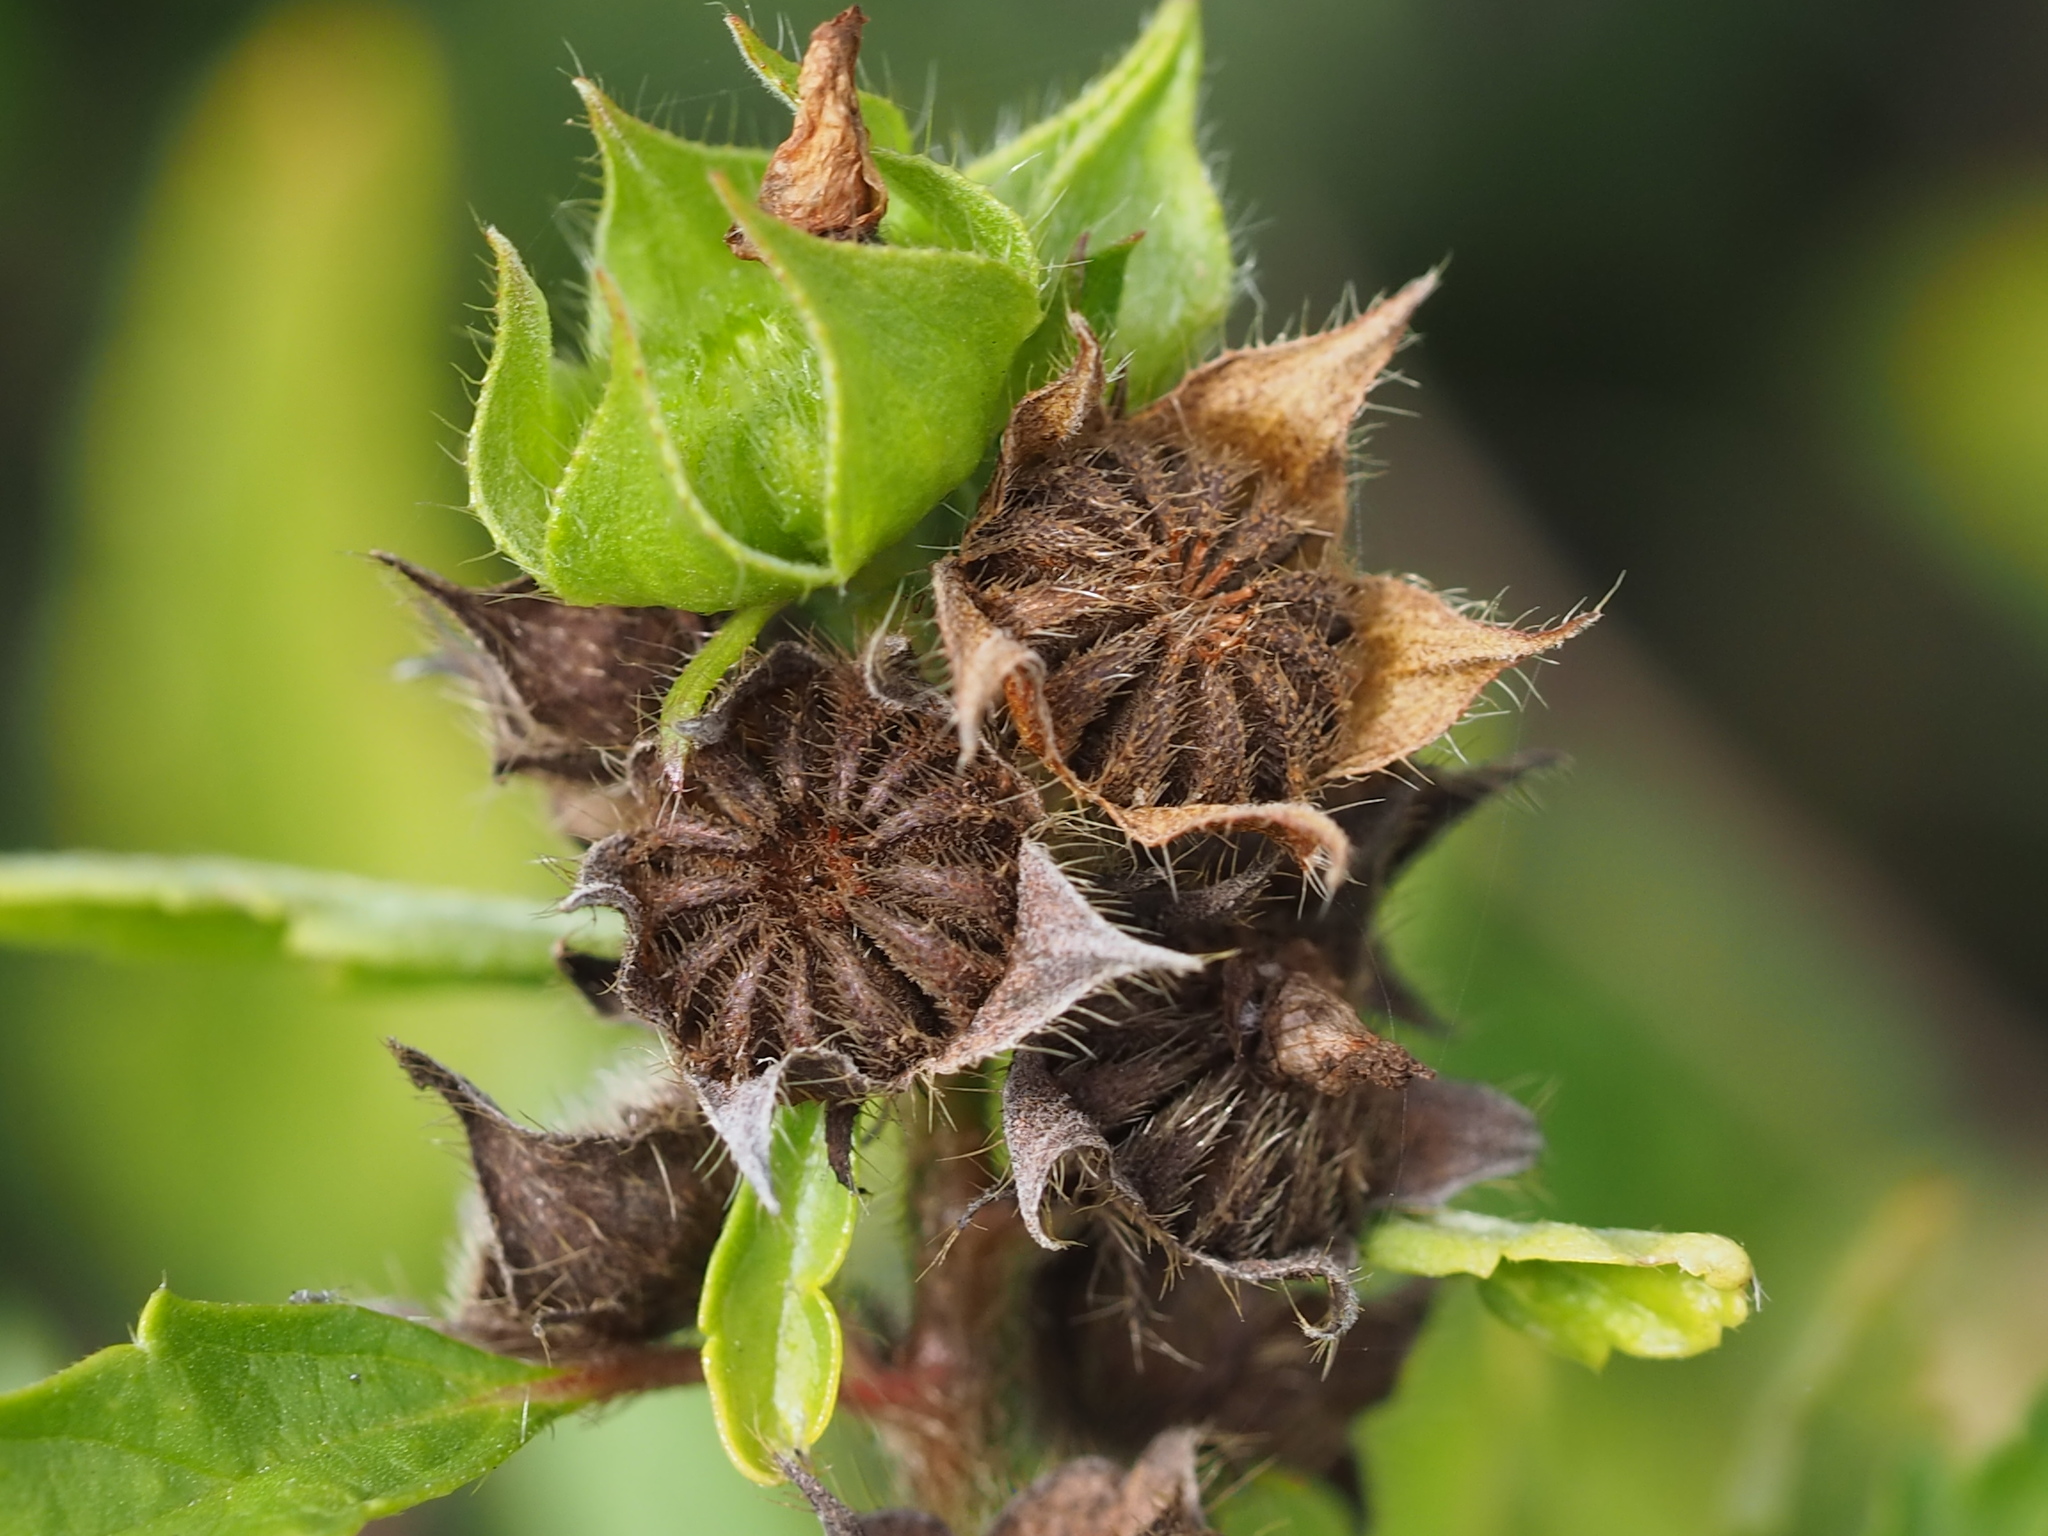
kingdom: Plantae
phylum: Tracheophyta
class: Magnoliopsida
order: Malvales
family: Malvaceae
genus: Malvastrum
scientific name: Malvastrum coromandelianum
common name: Threelobe false mallow
